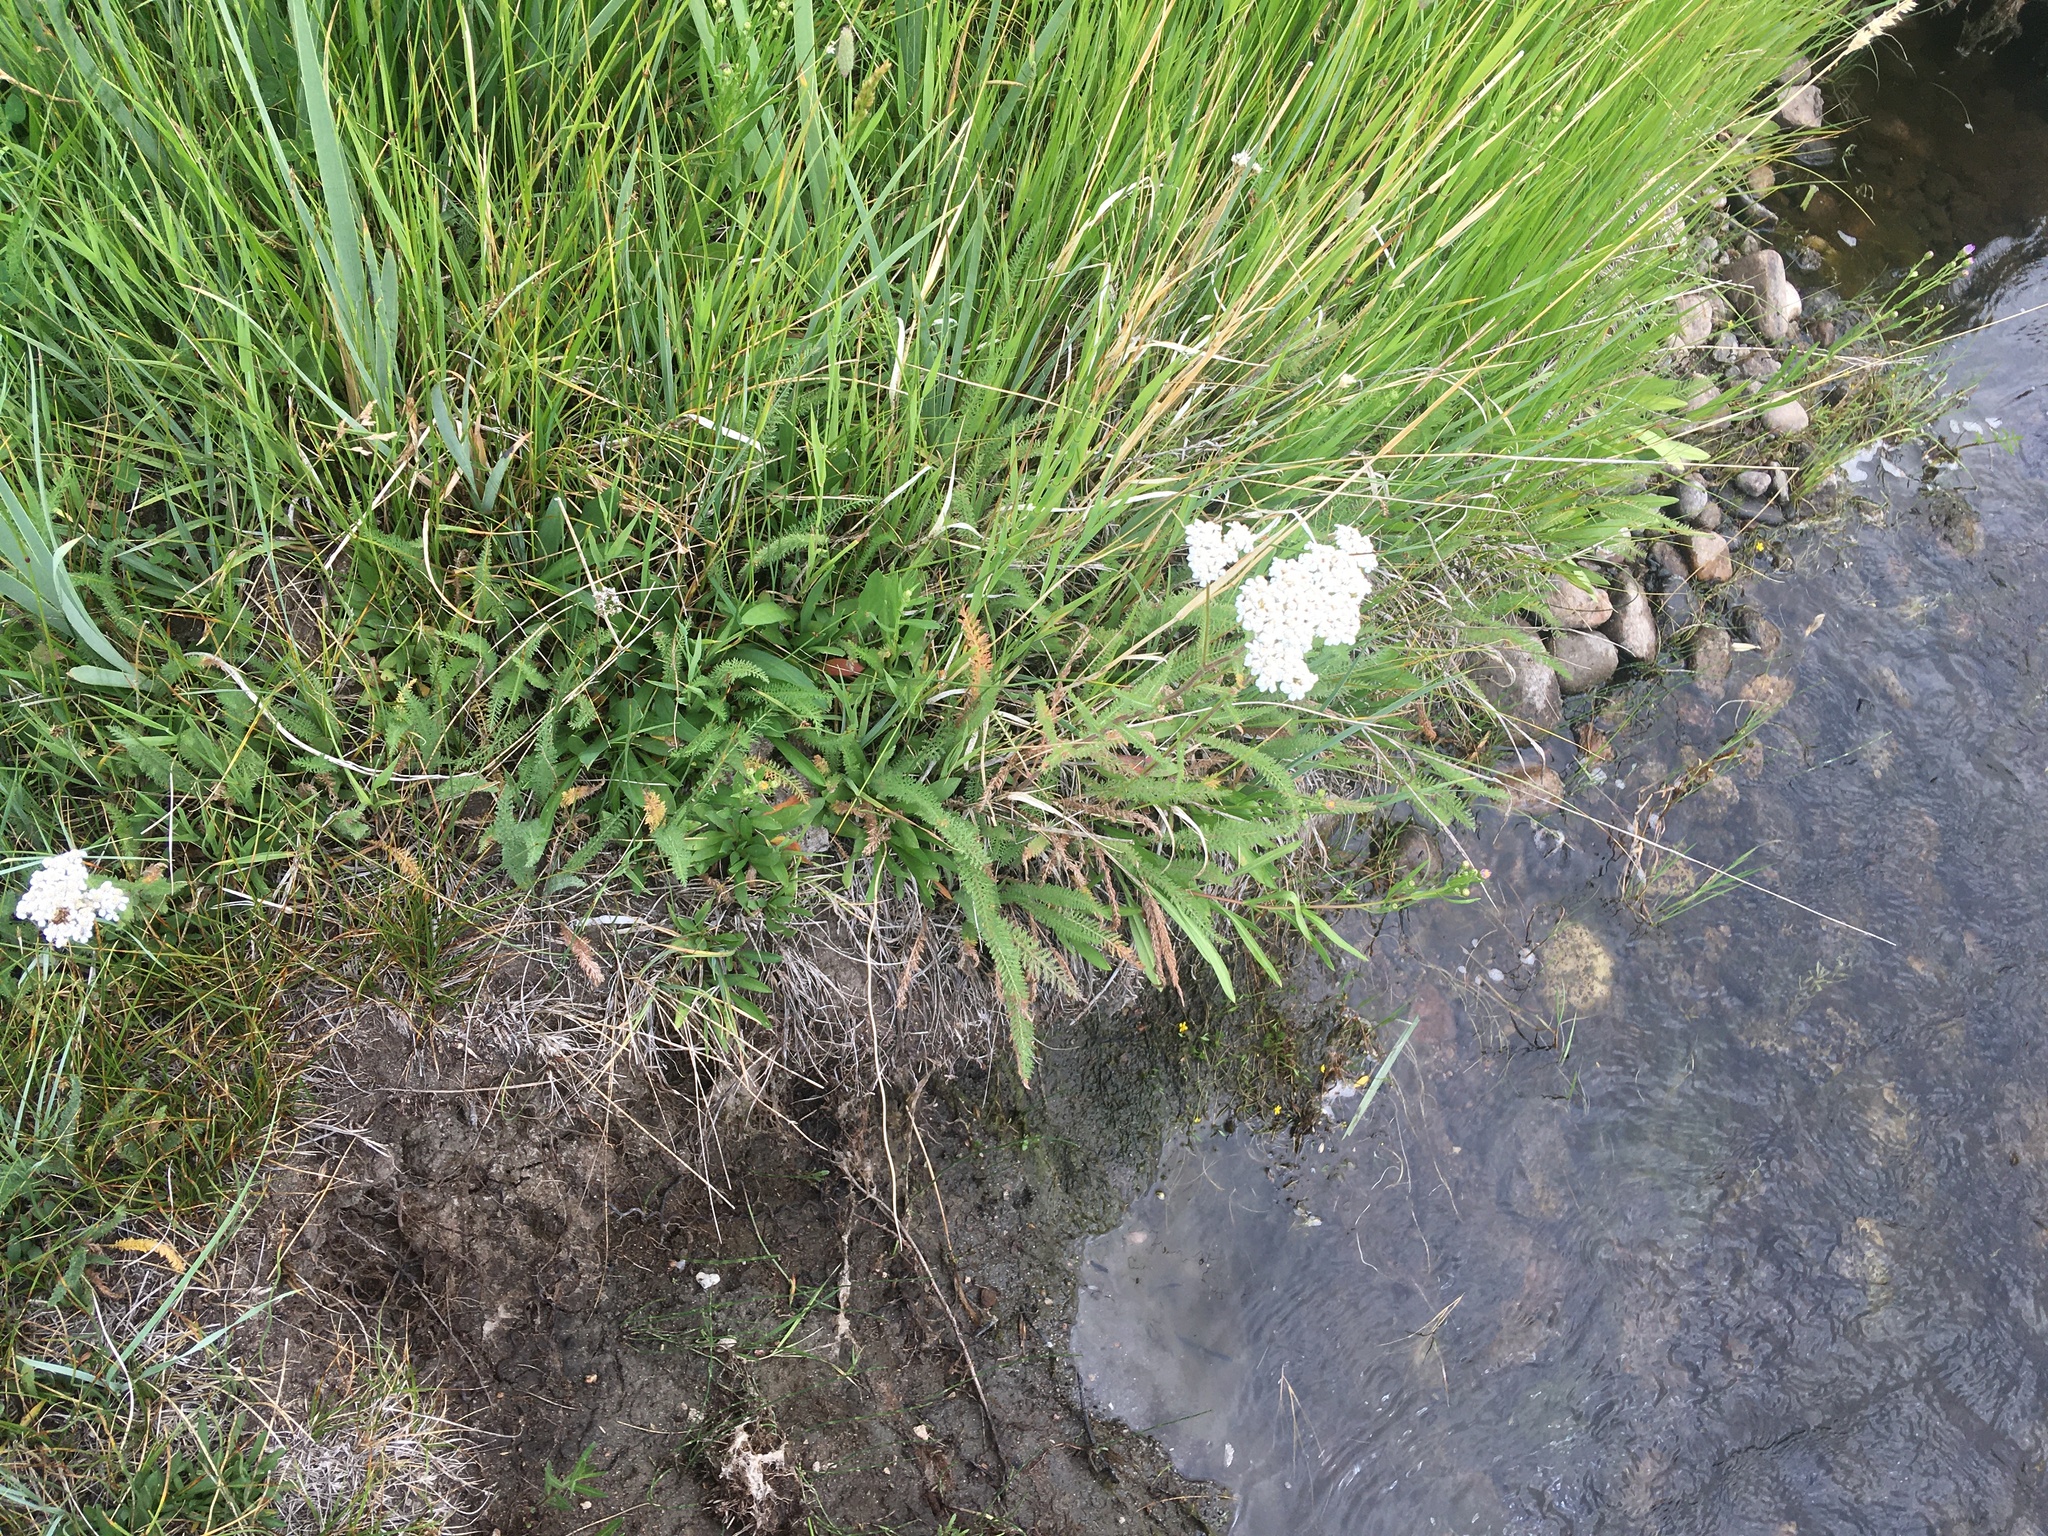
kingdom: Plantae
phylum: Tracheophyta
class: Magnoliopsida
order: Asterales
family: Asteraceae
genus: Achillea
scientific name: Achillea millefolium
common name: Yarrow
